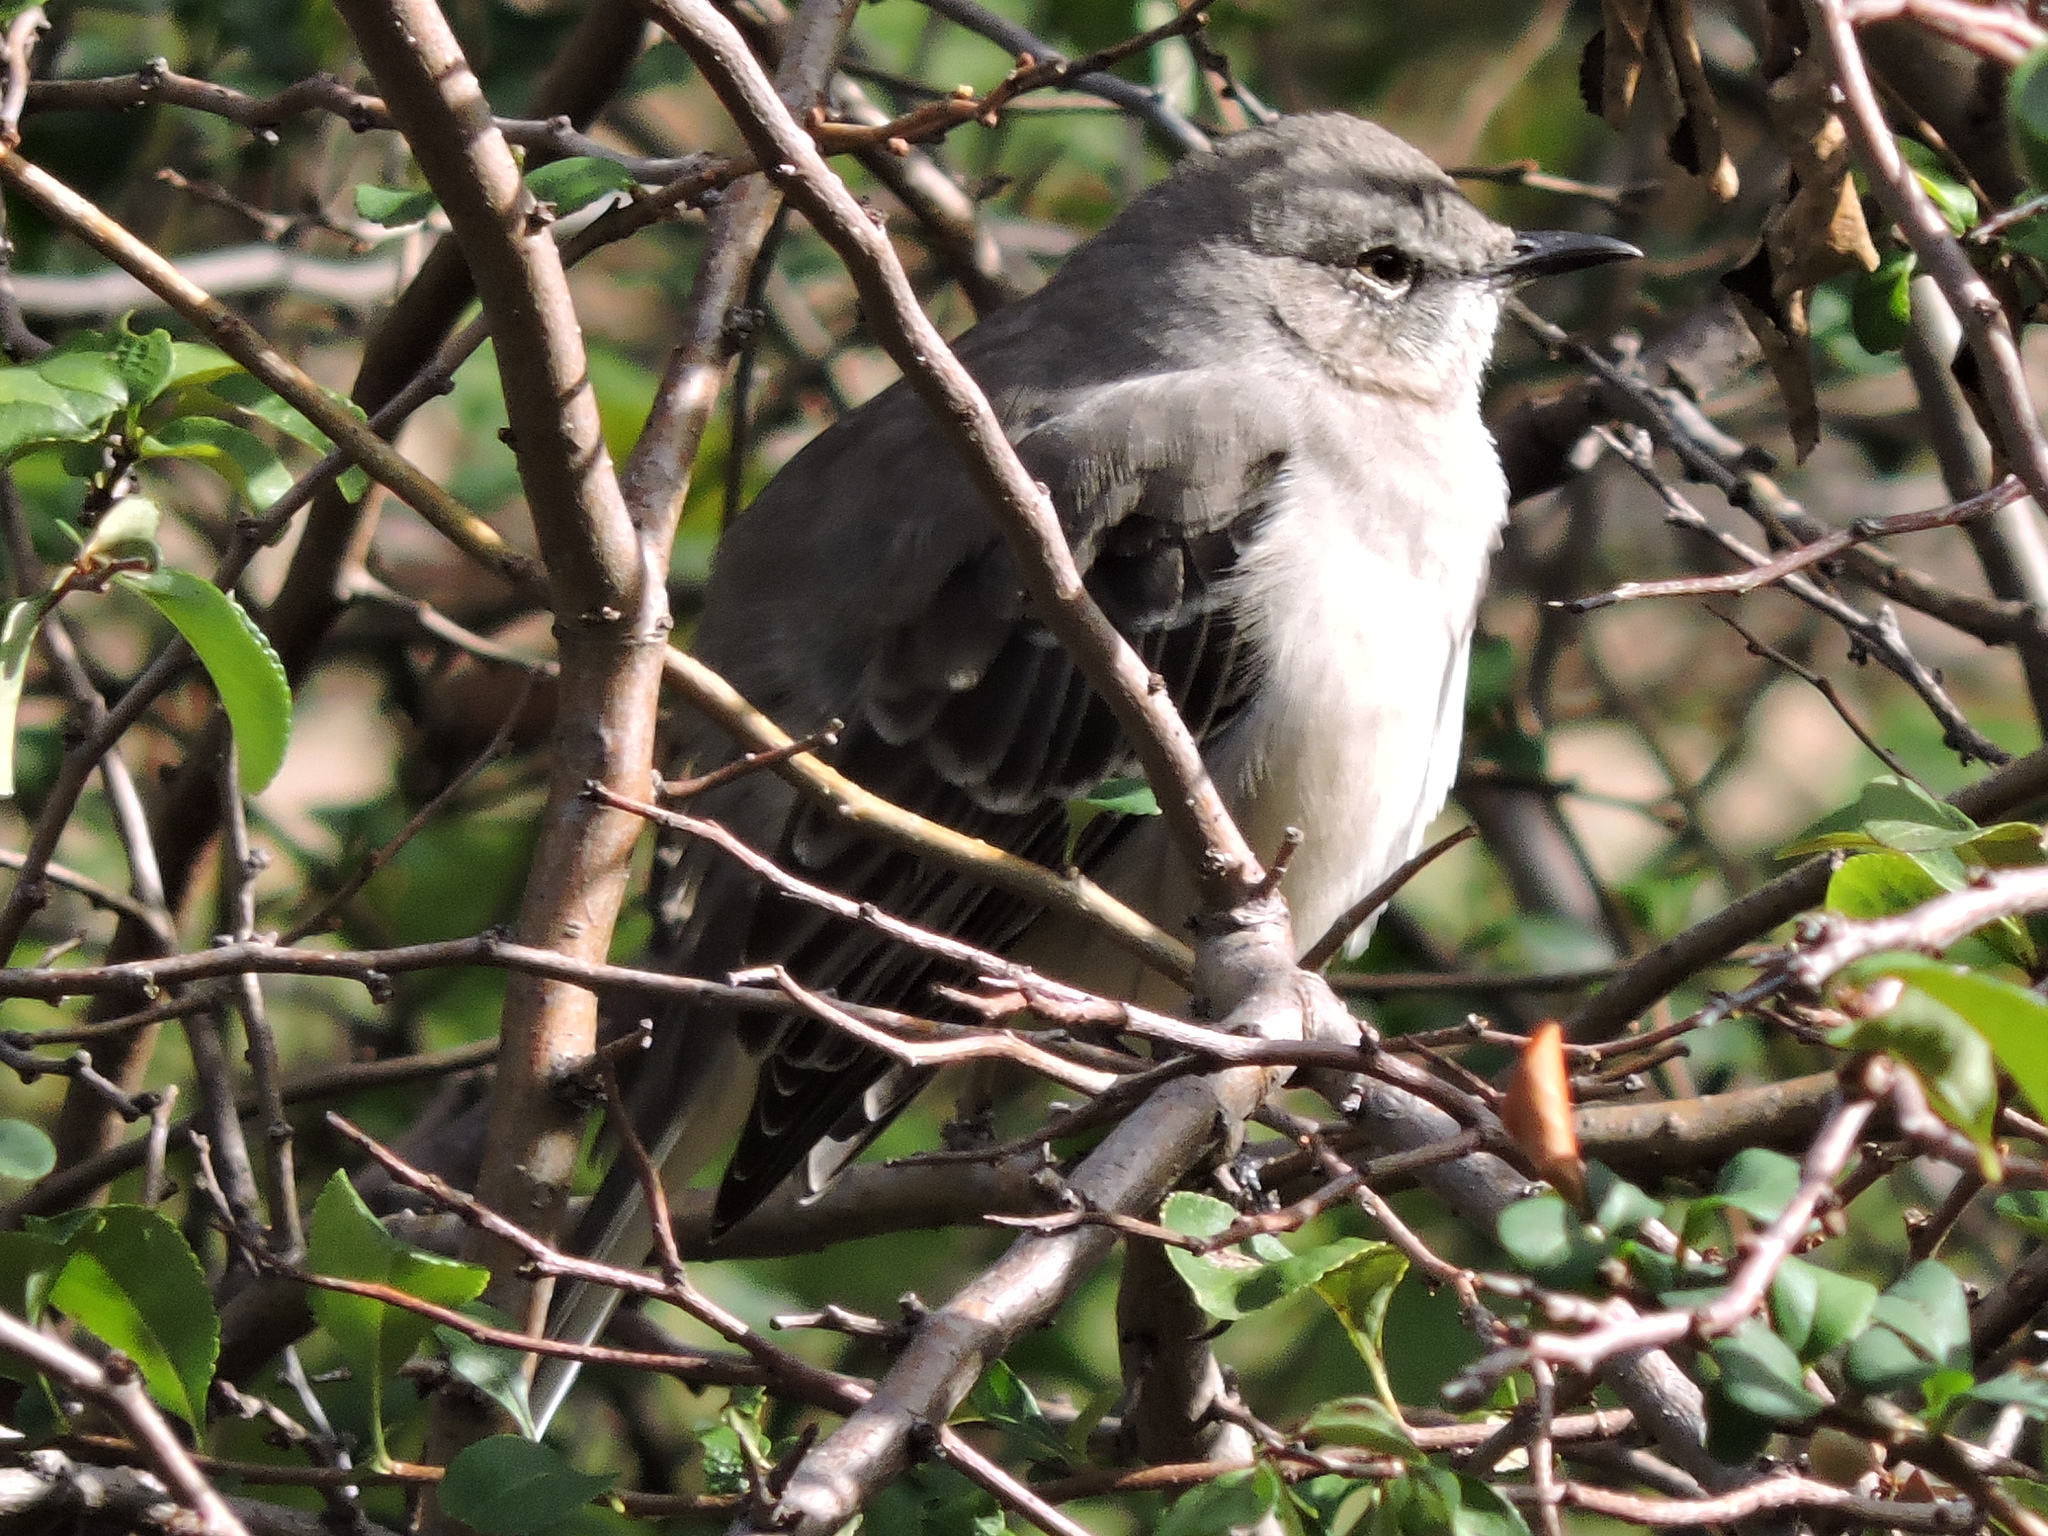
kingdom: Animalia
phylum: Chordata
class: Aves
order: Passeriformes
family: Mimidae
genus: Mimus
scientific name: Mimus polyglottos
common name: Northern mockingbird
